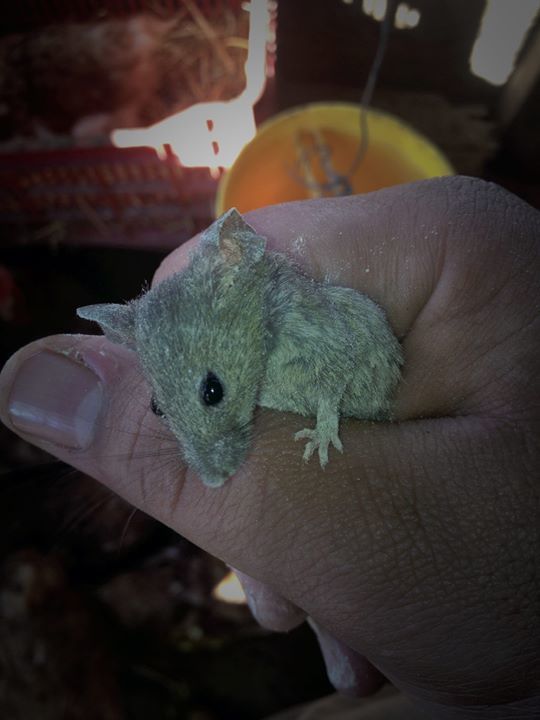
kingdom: Animalia
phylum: Chordata
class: Mammalia
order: Rodentia
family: Muridae
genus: Mus
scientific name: Mus musculus
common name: House mouse
